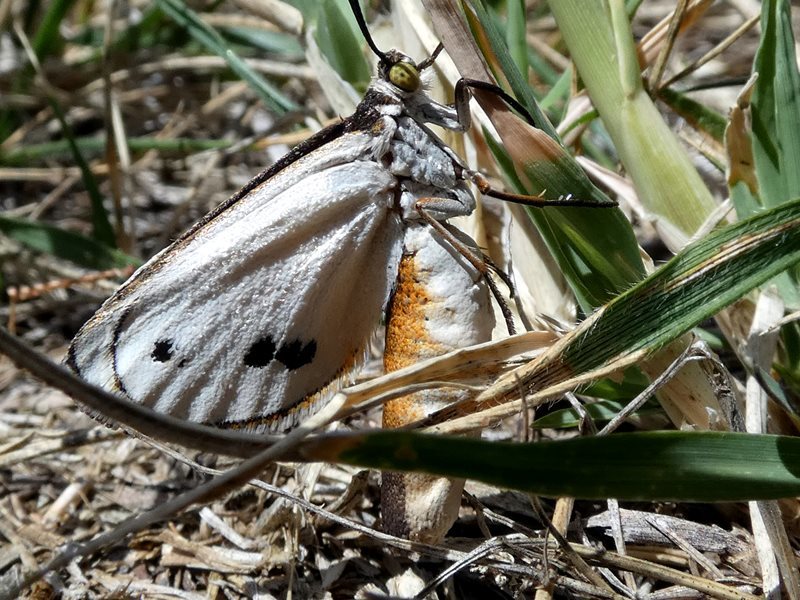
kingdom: Animalia
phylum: Arthropoda
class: Insecta
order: Lepidoptera
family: Castniidae
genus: Synemon
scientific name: Synemon plana
